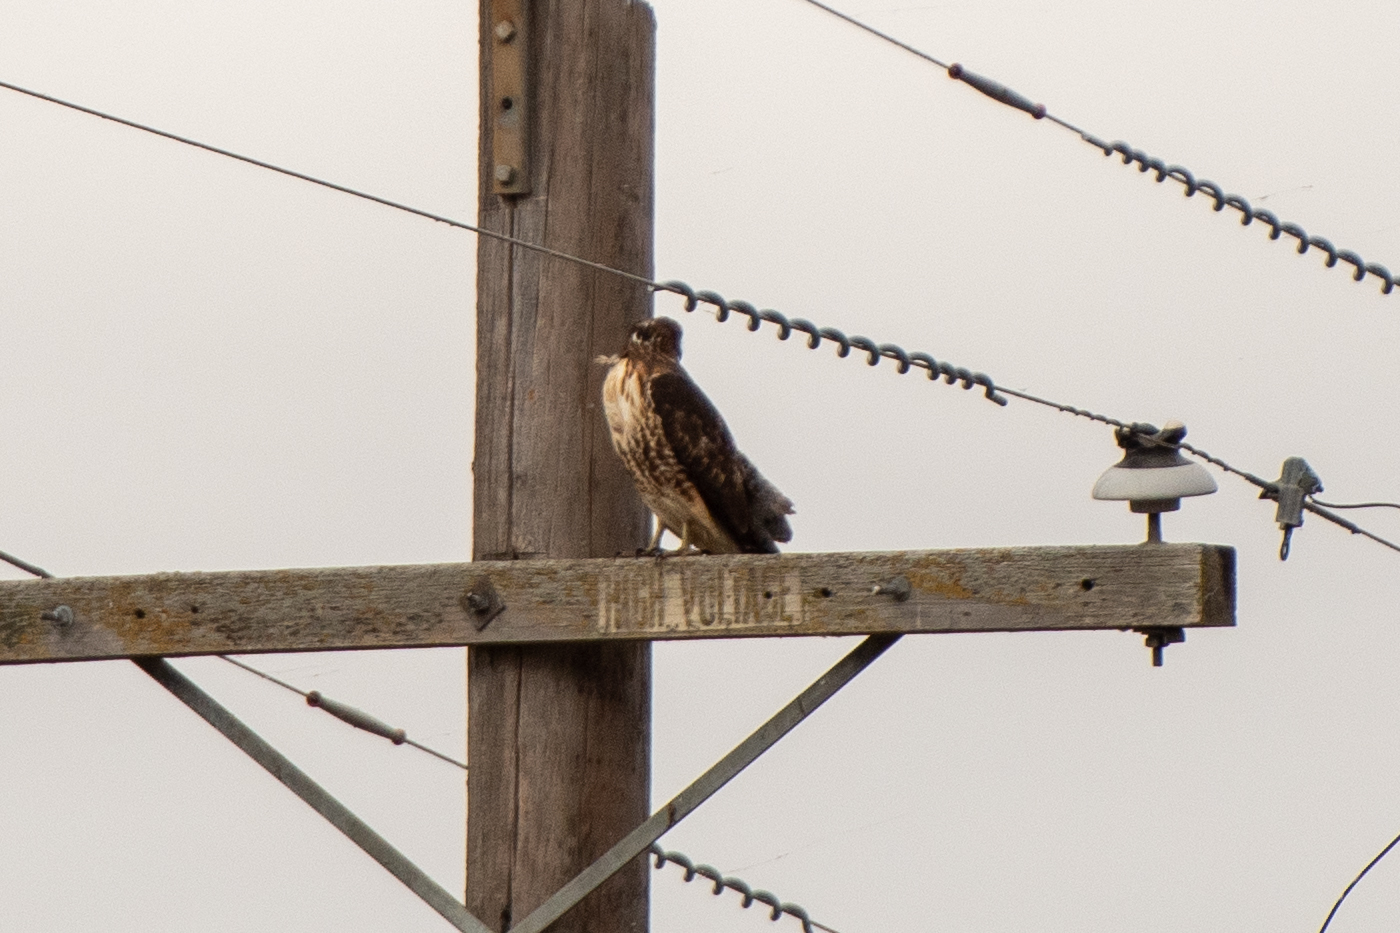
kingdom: Animalia
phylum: Chordata
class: Aves
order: Accipitriformes
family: Accipitridae
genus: Buteo
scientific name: Buteo jamaicensis
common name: Red-tailed hawk
